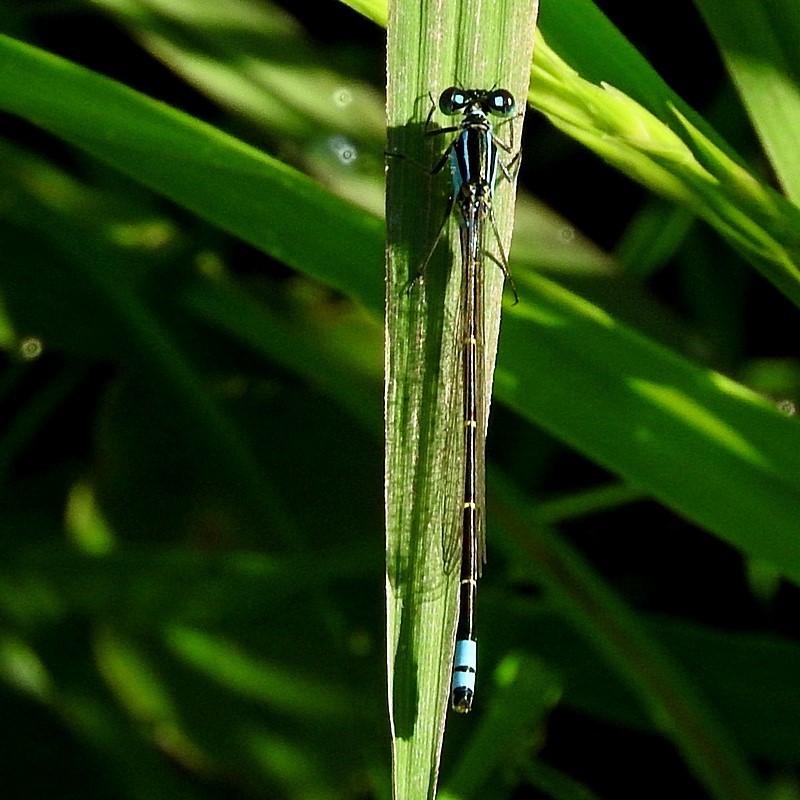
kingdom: Animalia
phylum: Arthropoda
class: Insecta
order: Odonata
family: Coenagrionidae
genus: Ischnura
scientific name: Ischnura heterosticta
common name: Common bluetail
